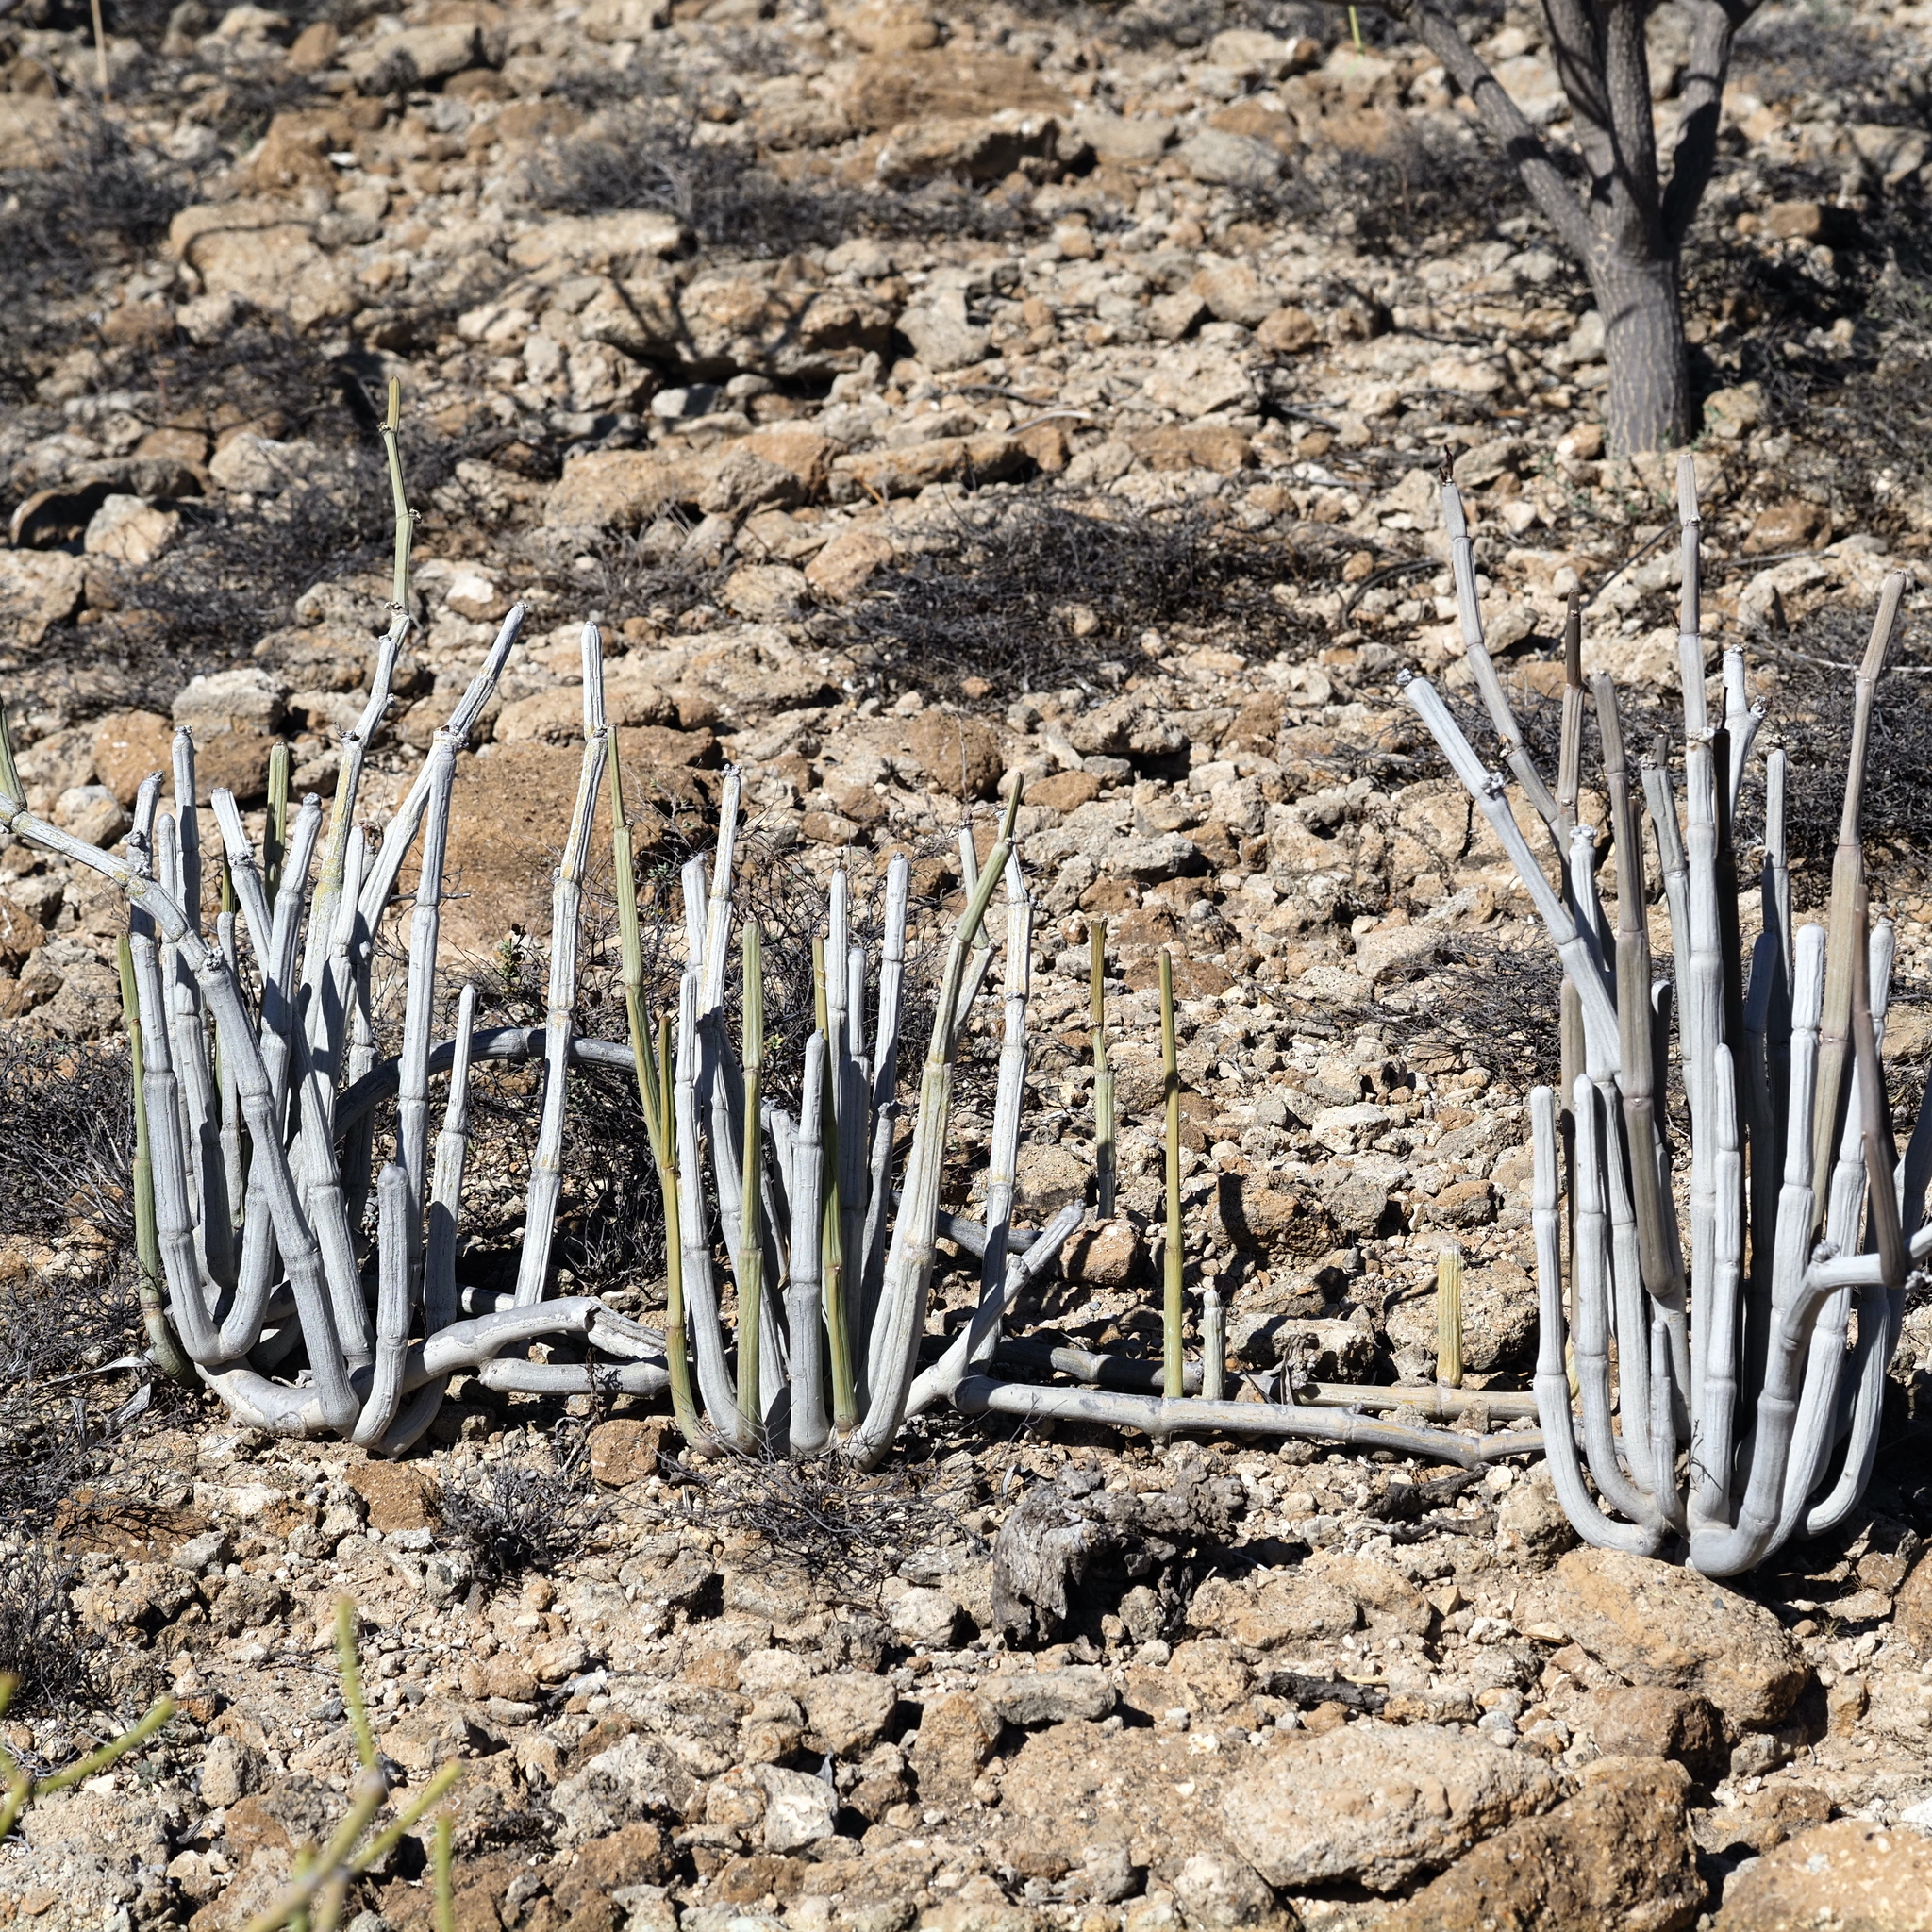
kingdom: Plantae
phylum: Tracheophyta
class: Magnoliopsida
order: Gentianales
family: Apocynaceae
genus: Ceropegia
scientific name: Ceropegia fusca
